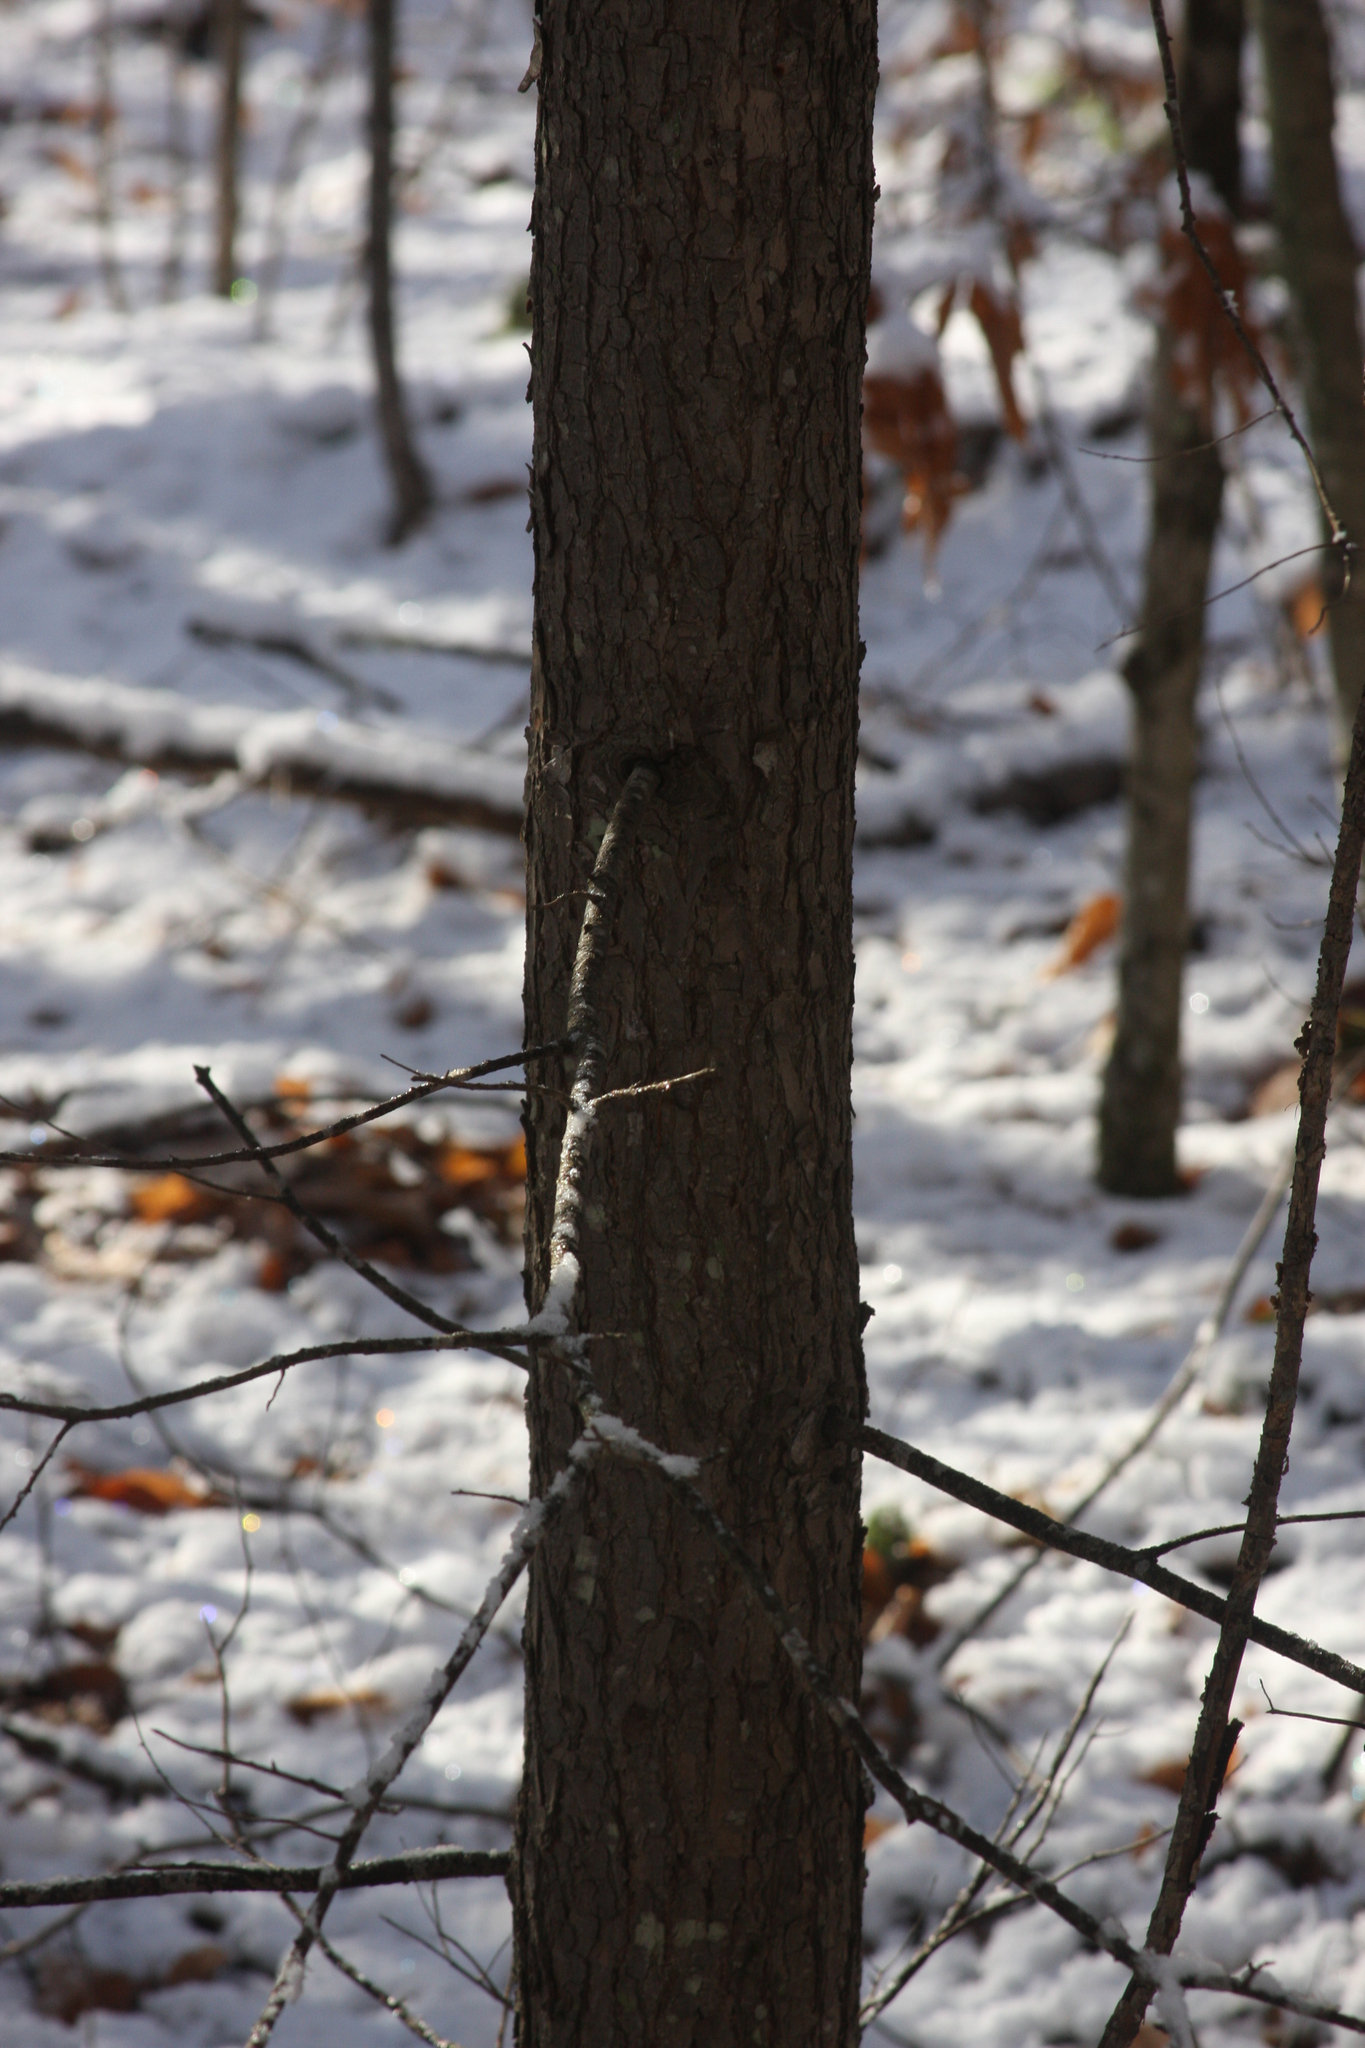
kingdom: Plantae
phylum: Tracheophyta
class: Pinopsida
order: Pinales
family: Pinaceae
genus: Tsuga
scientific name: Tsuga canadensis
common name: Eastern hemlock
